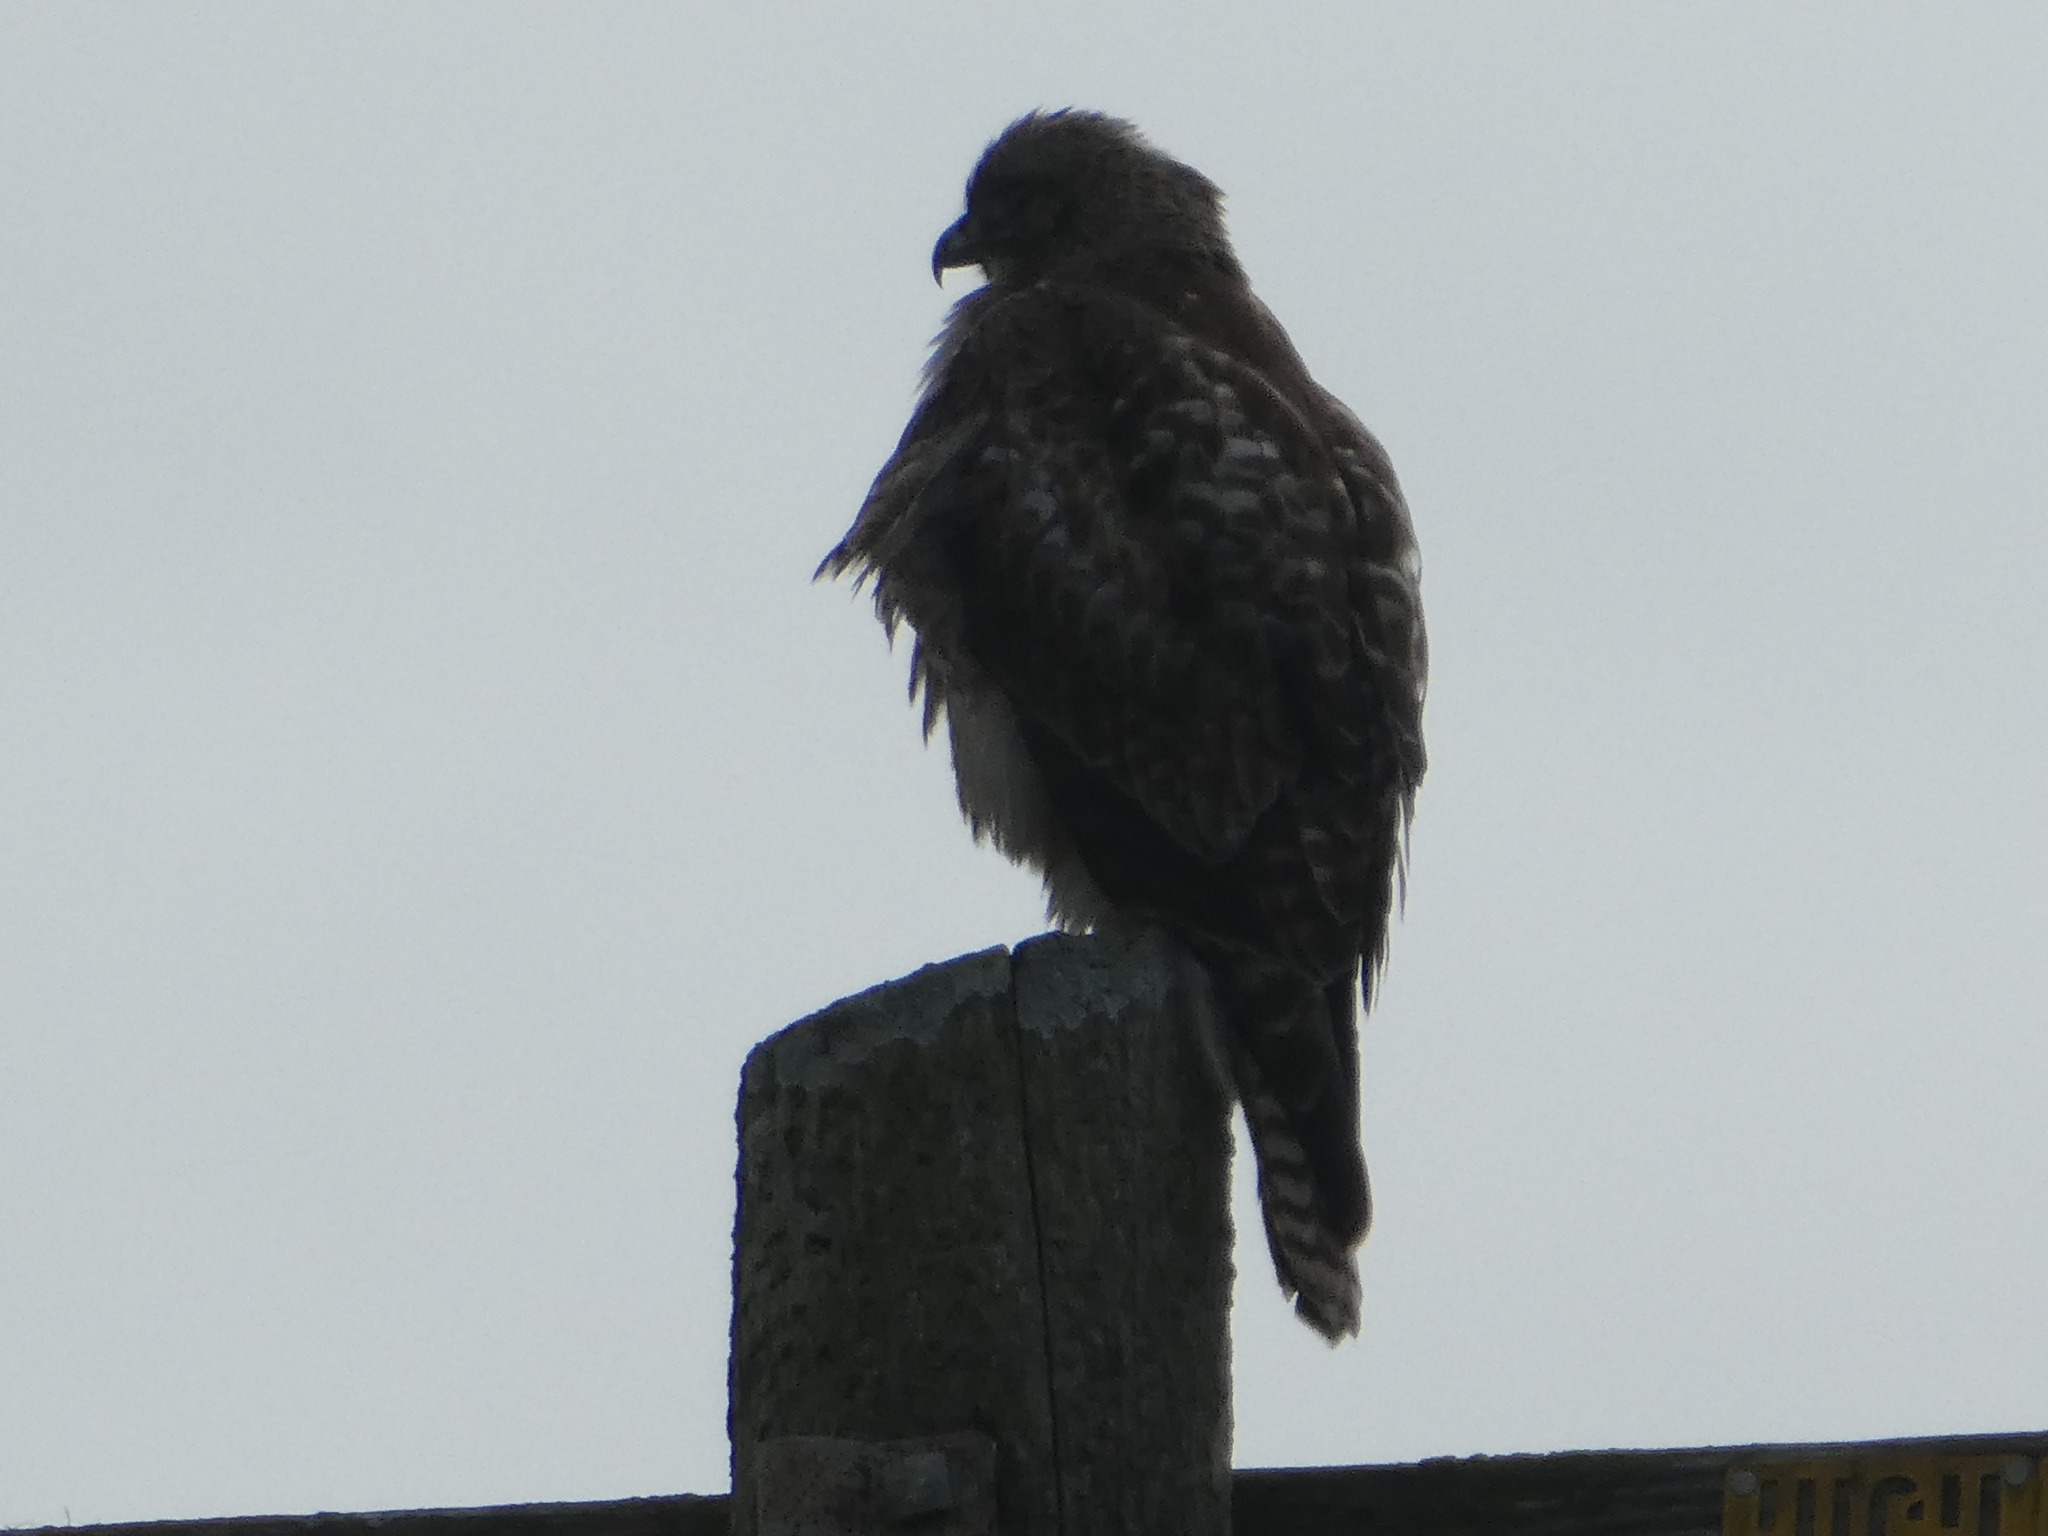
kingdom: Animalia
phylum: Chordata
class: Aves
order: Accipitriformes
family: Accipitridae
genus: Buteo
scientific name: Buteo jamaicensis
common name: Red-tailed hawk
